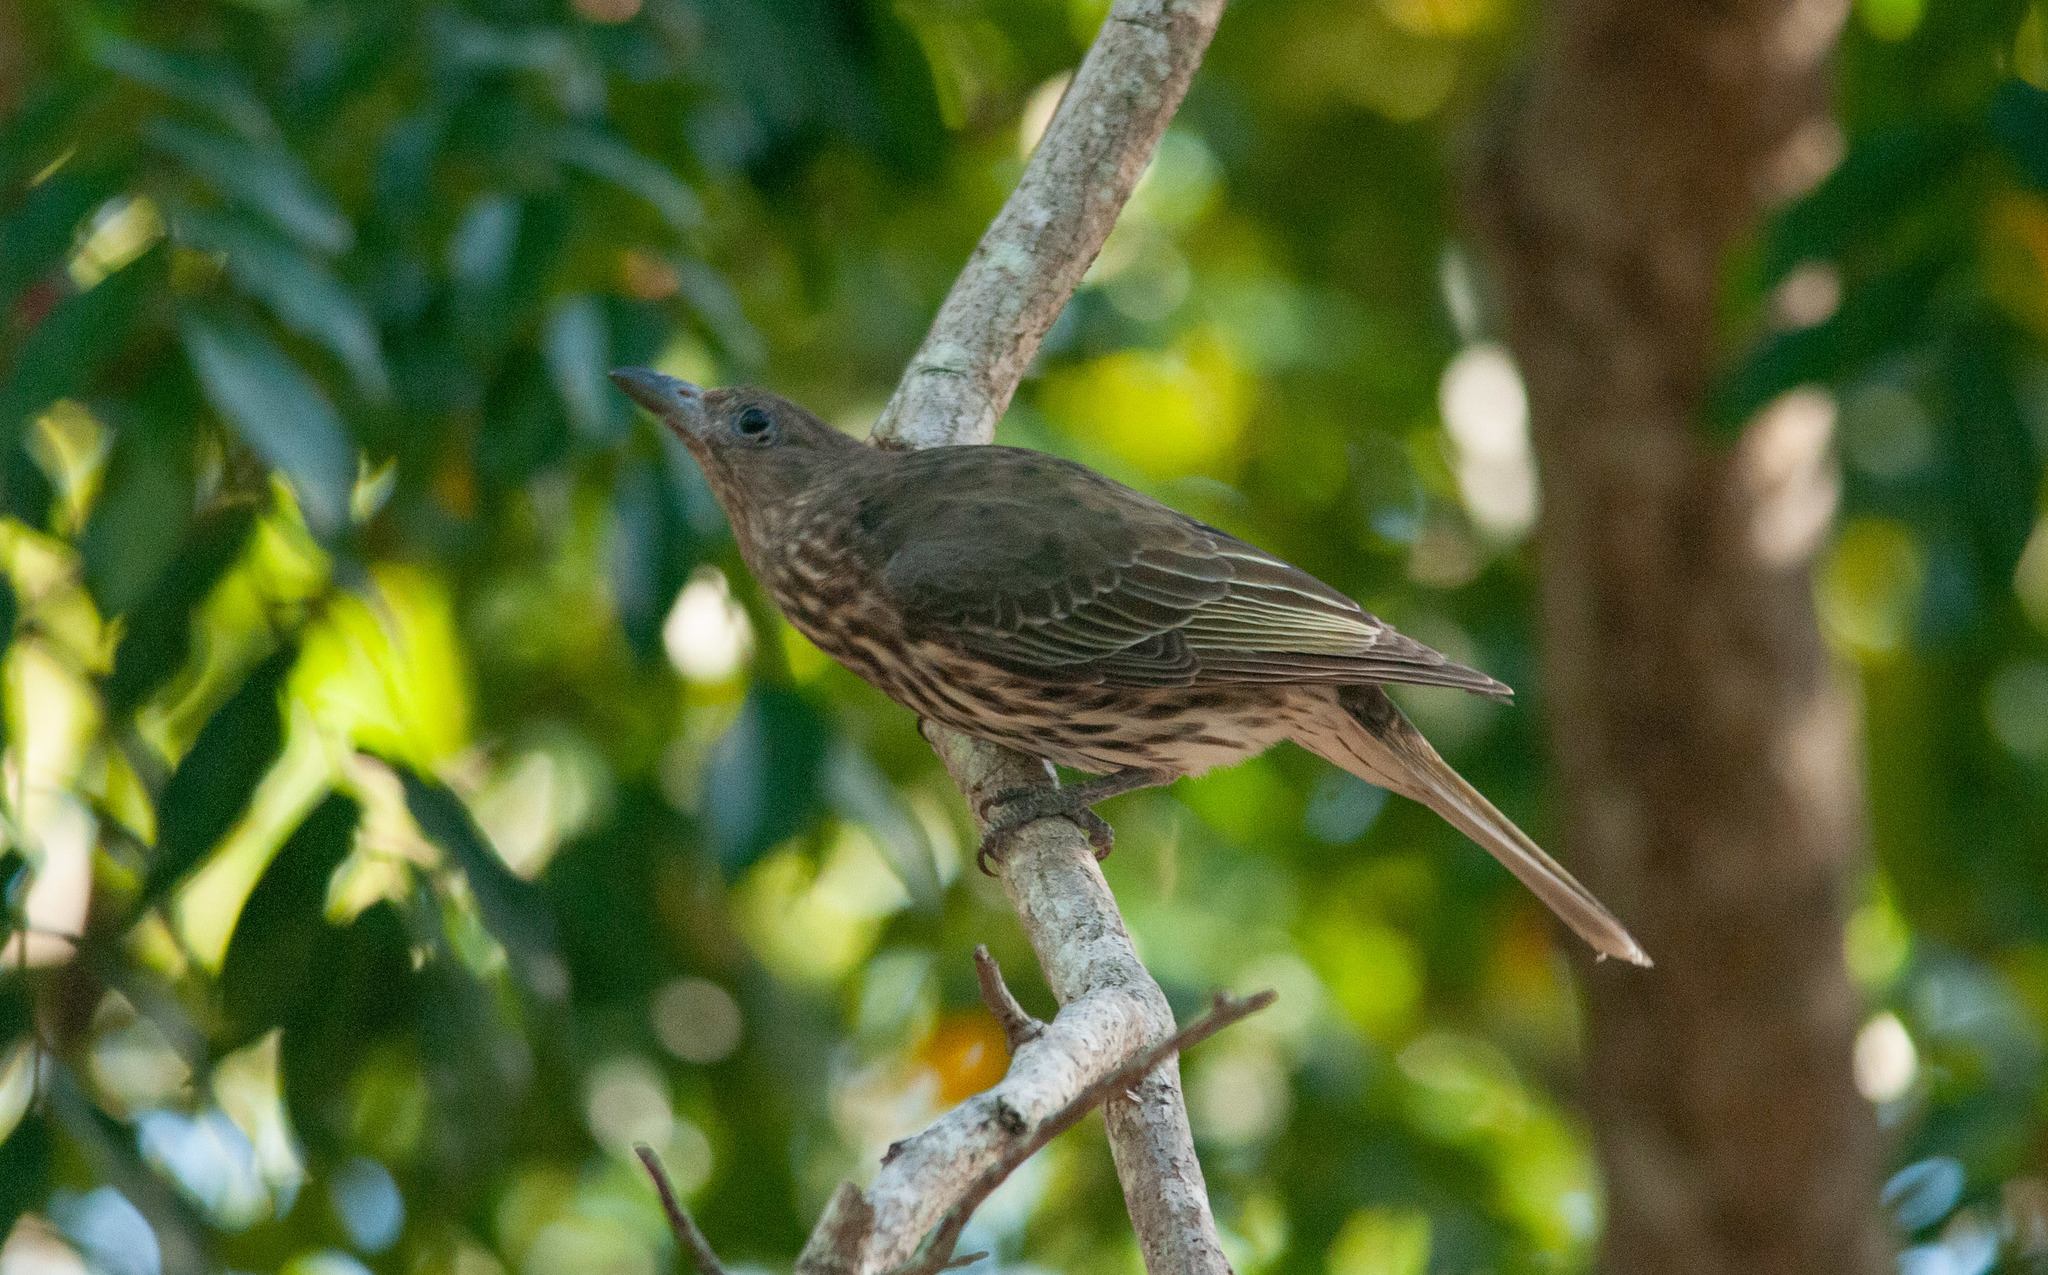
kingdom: Animalia
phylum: Chordata
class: Aves
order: Passeriformes
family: Oriolidae
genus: Sphecotheres
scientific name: Sphecotheres vieilloti
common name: Australasian figbird
